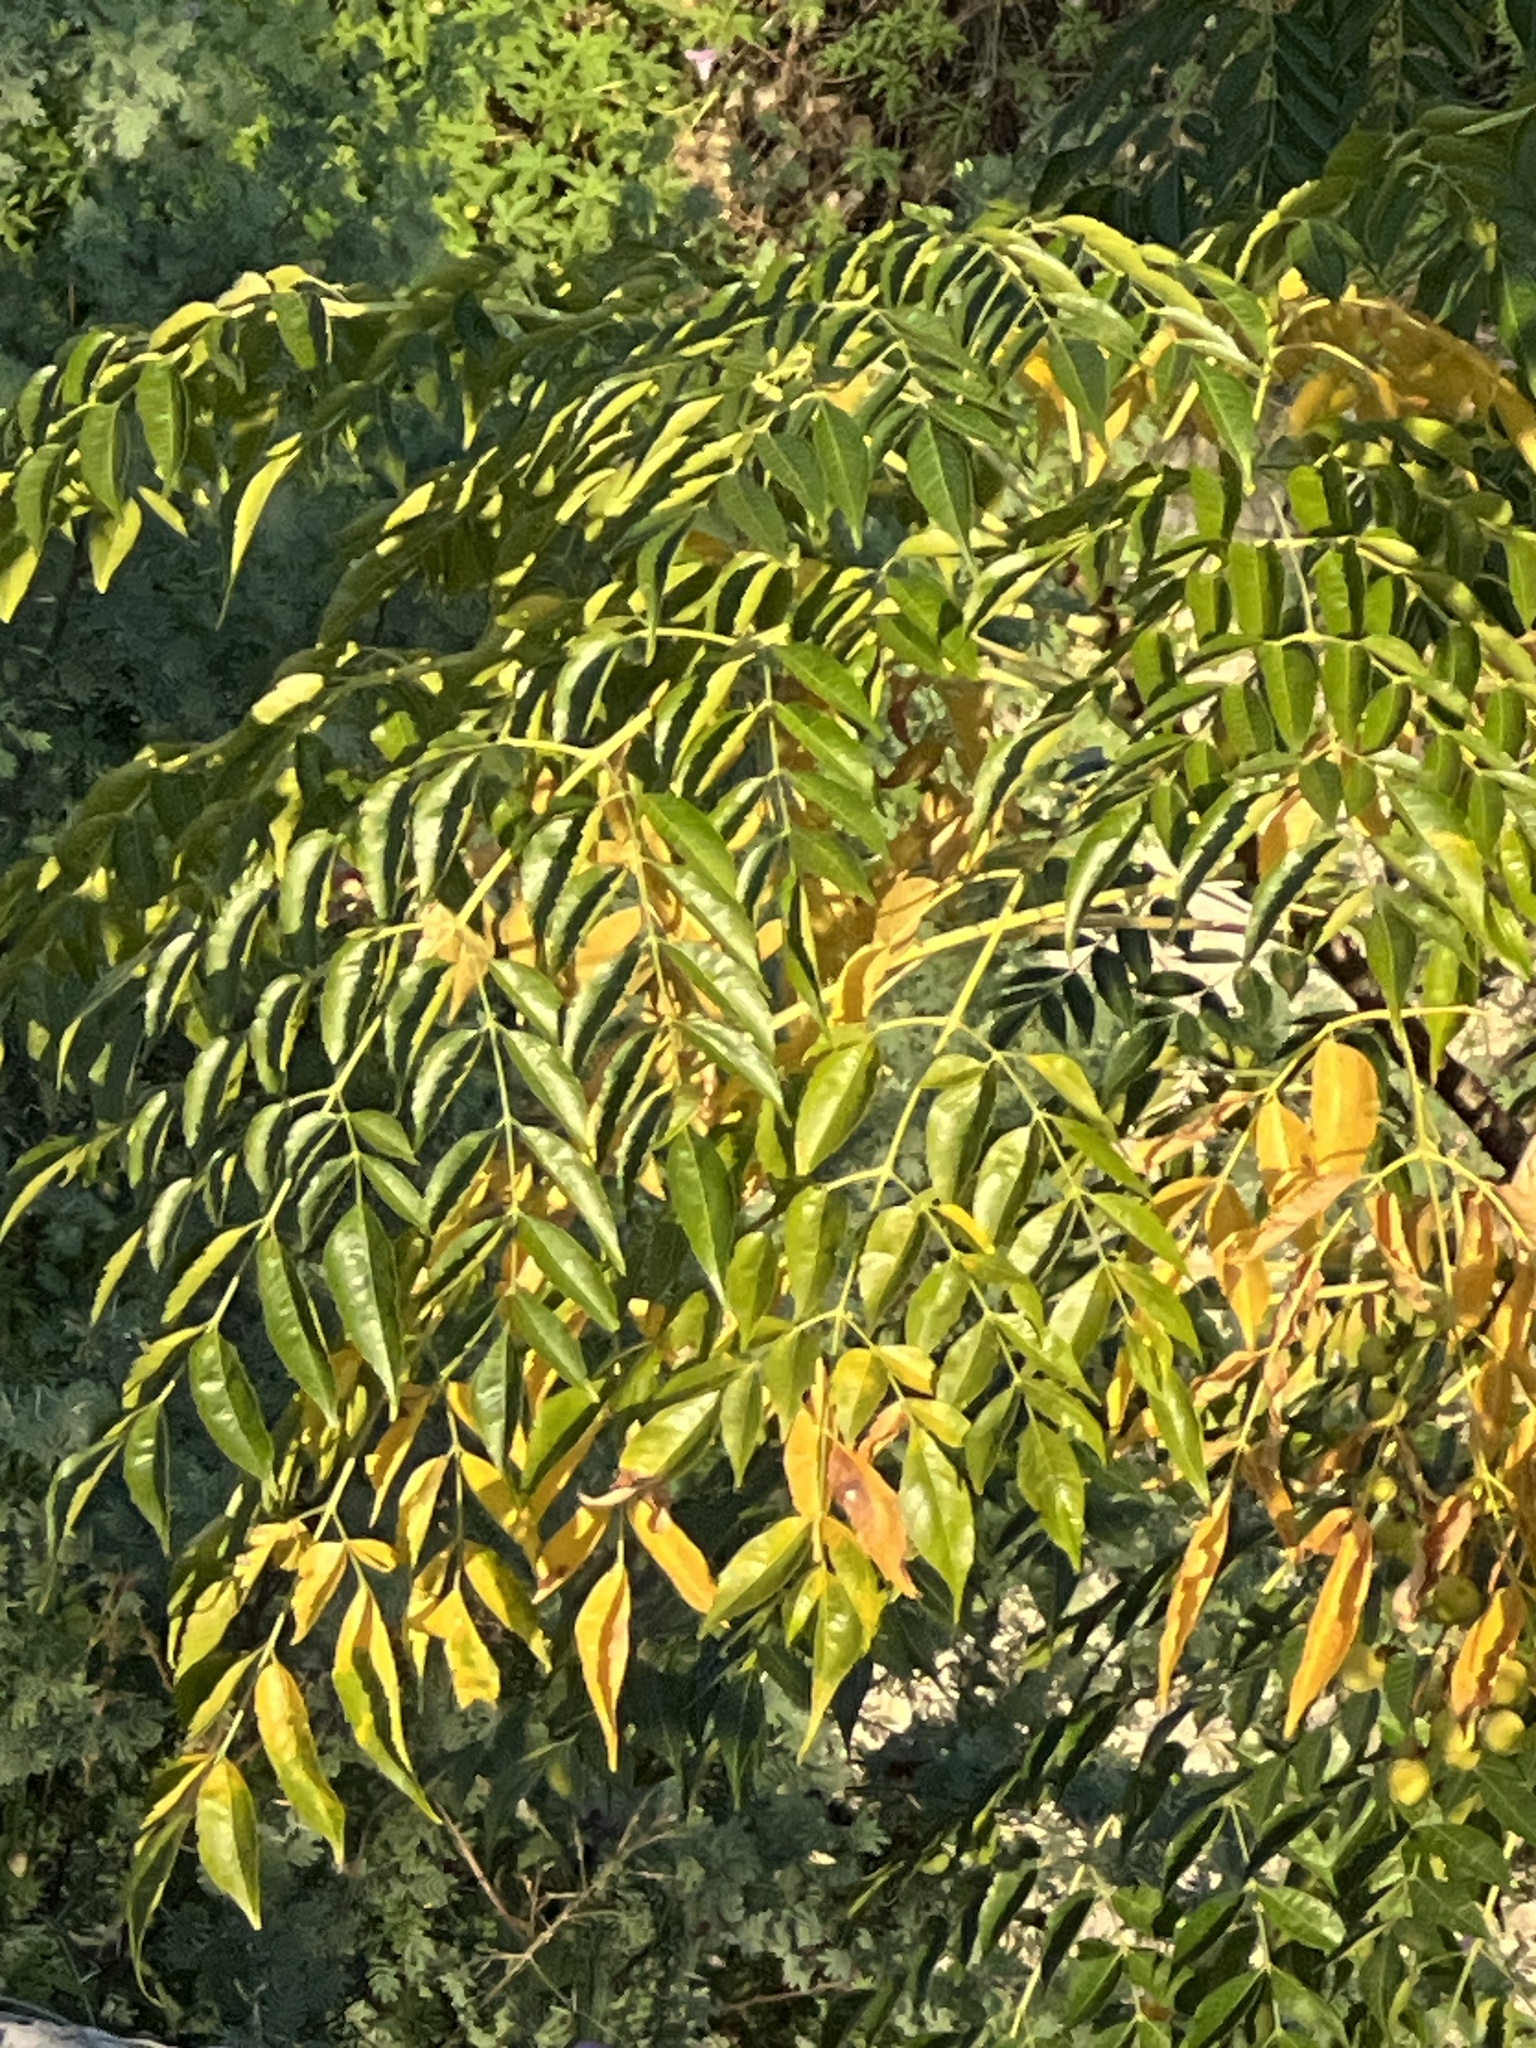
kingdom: Plantae
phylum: Tracheophyta
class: Magnoliopsida
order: Sapindales
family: Meliaceae
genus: Melia
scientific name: Melia azedarach
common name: Chinaberrytree
